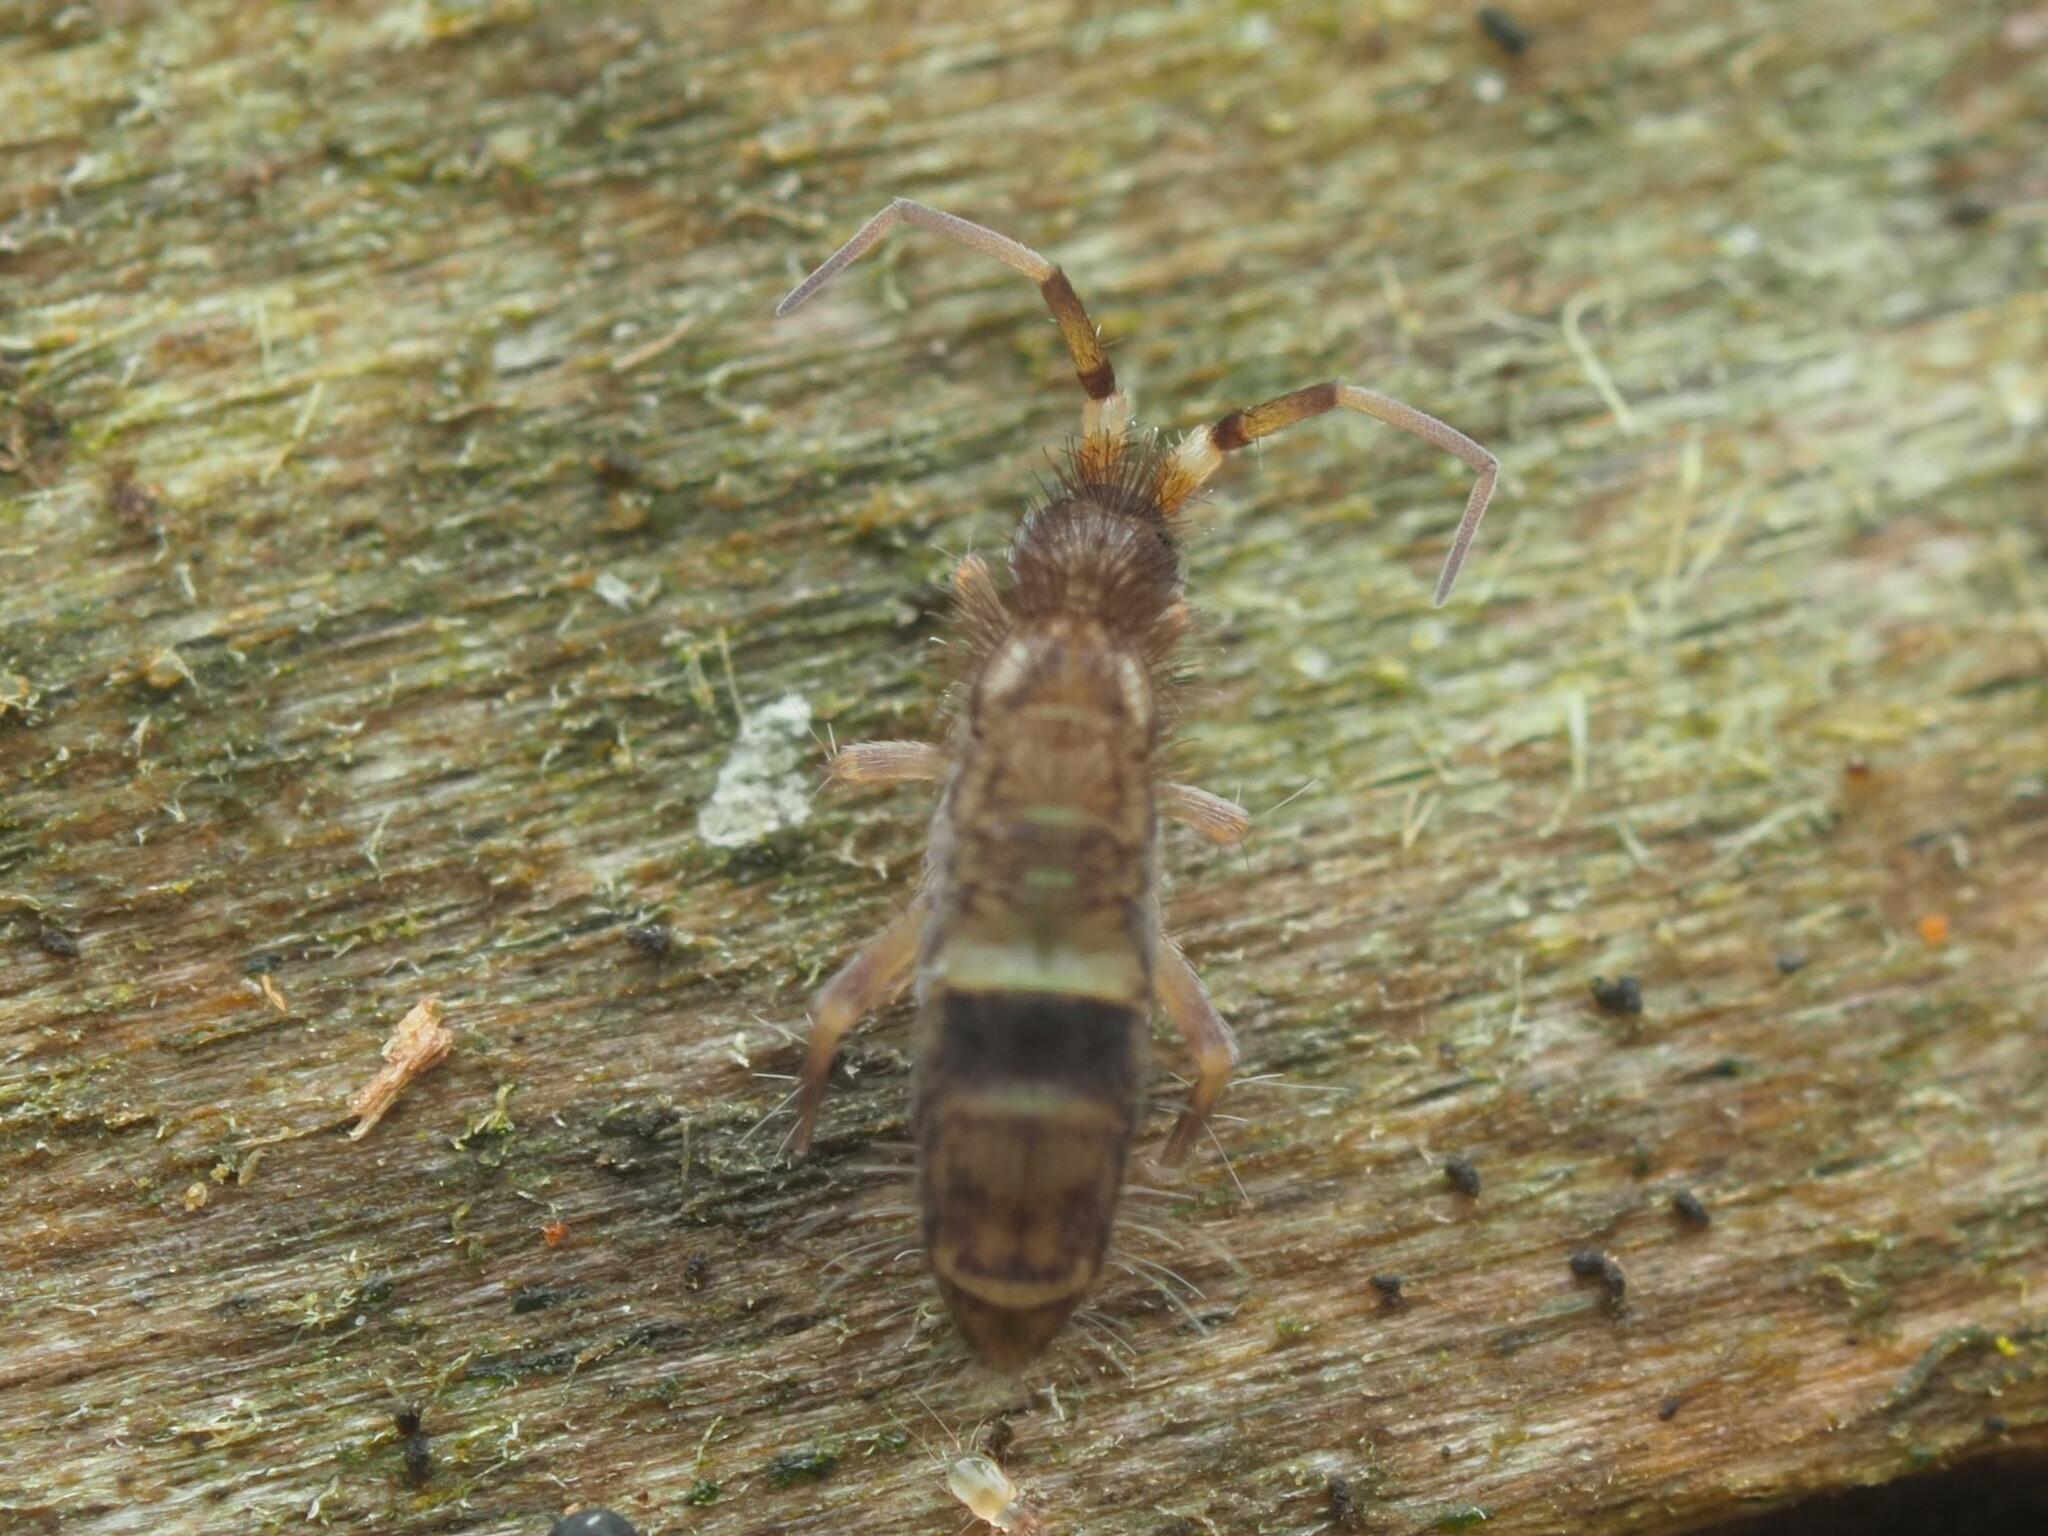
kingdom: Animalia
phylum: Arthropoda
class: Collembola
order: Entomobryomorpha
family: Orchesellidae
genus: Orchesella
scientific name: Orchesella cincta
